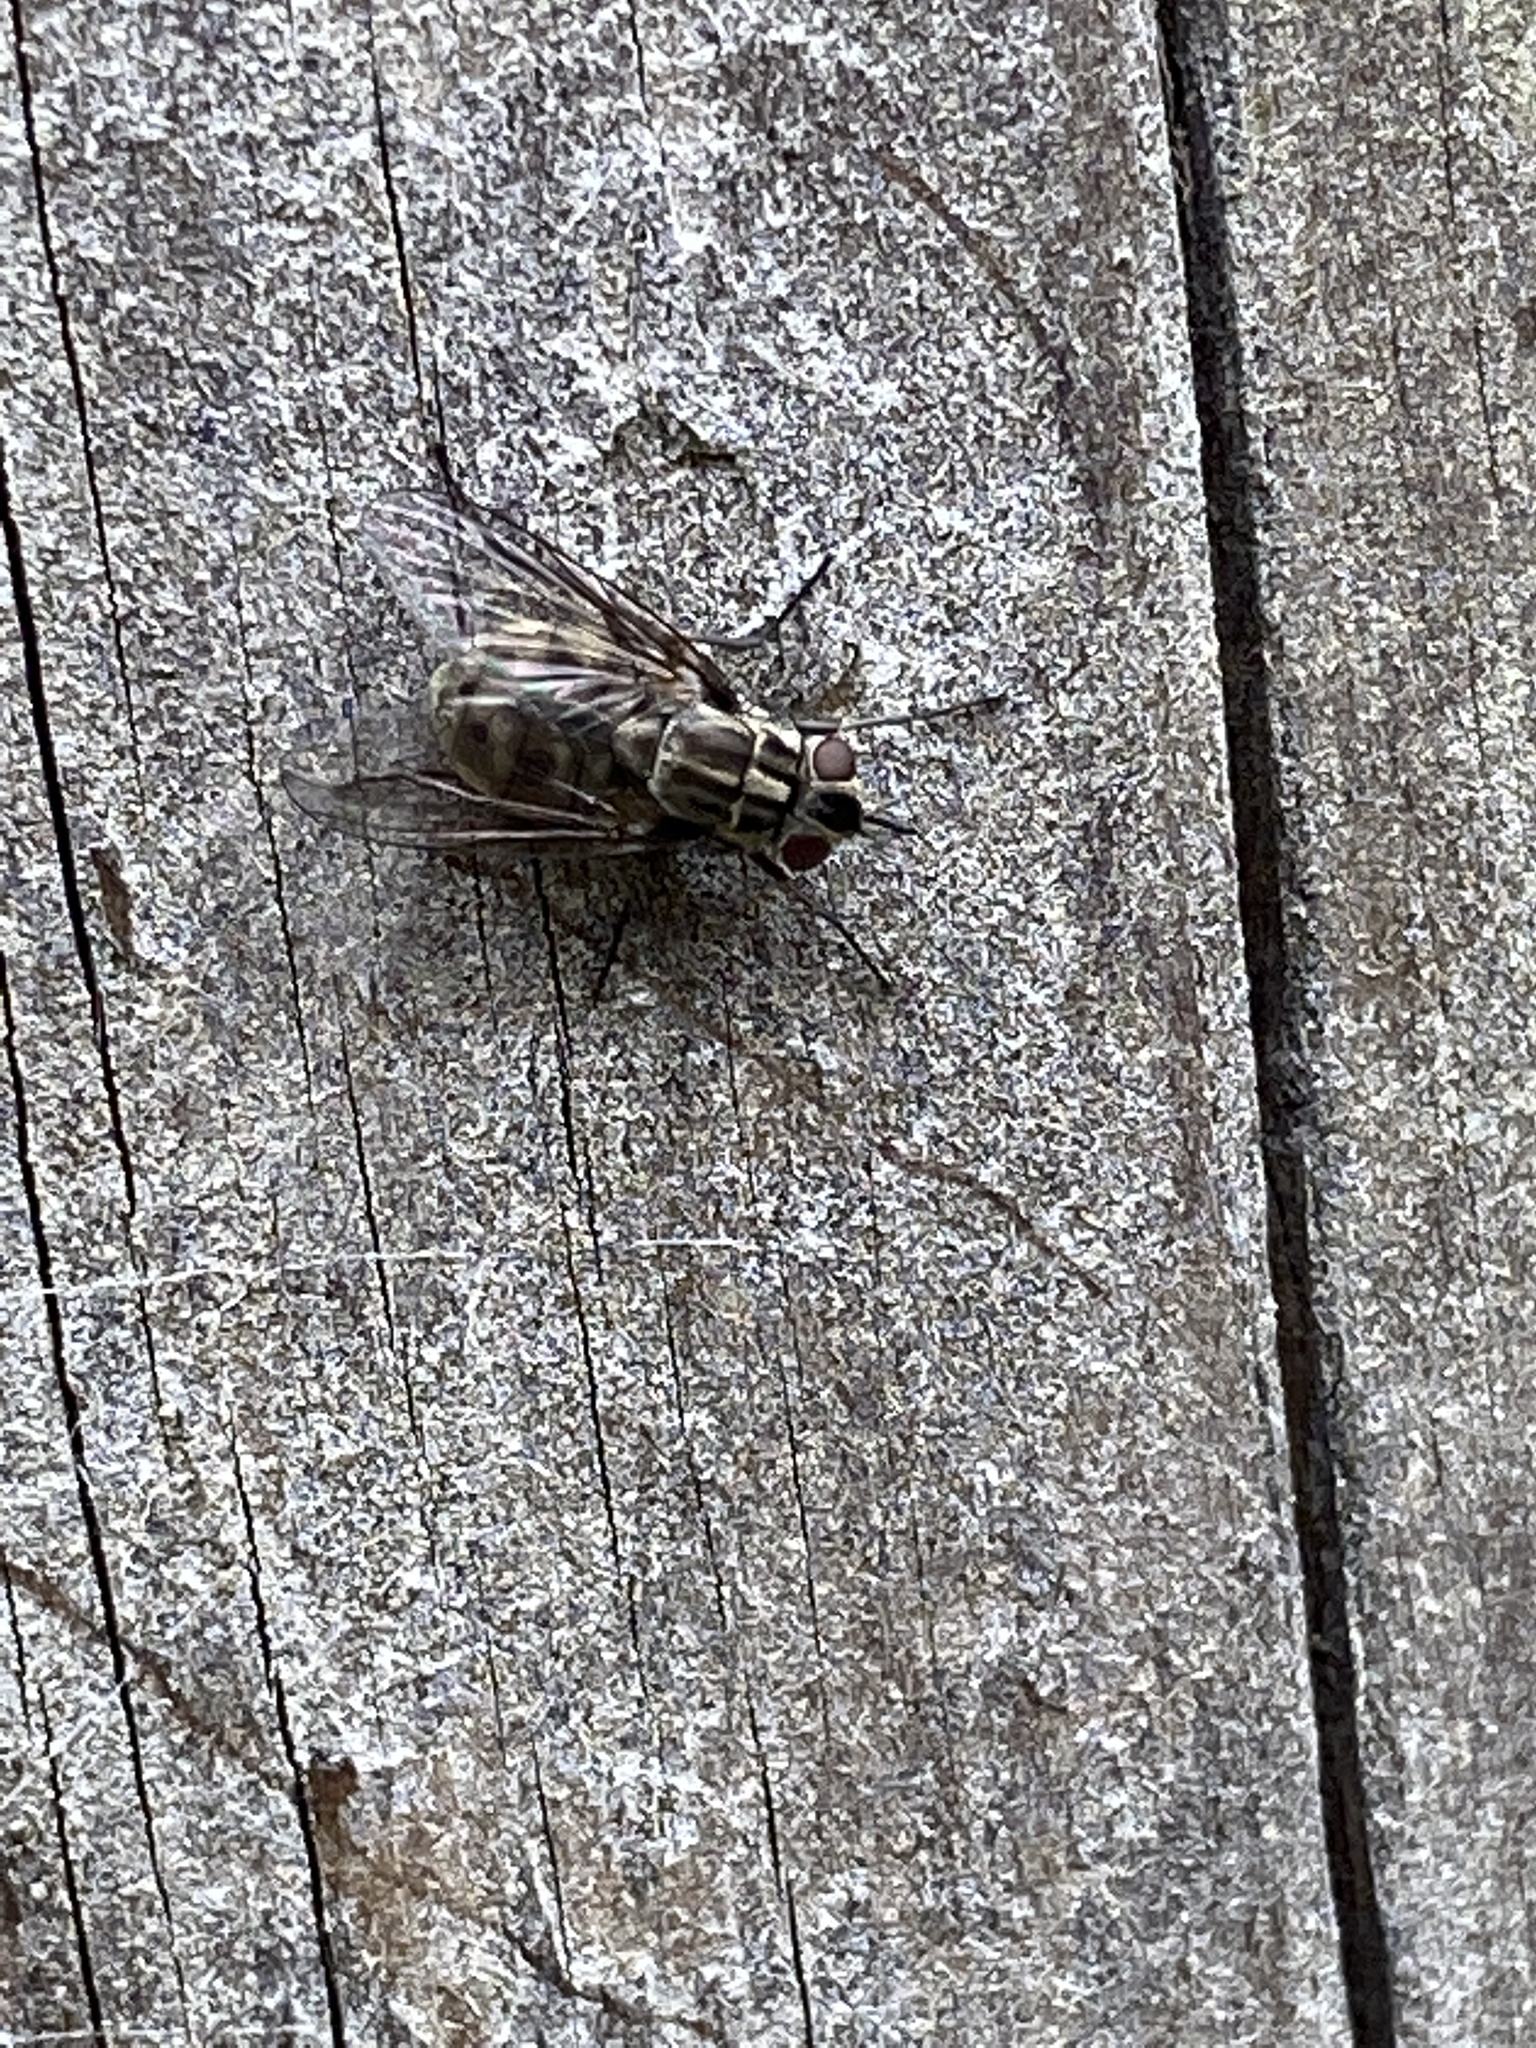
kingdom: Animalia
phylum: Arthropoda
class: Insecta
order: Diptera
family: Muscidae
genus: Stomoxys
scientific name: Stomoxys calcitrans
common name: Stable fly
